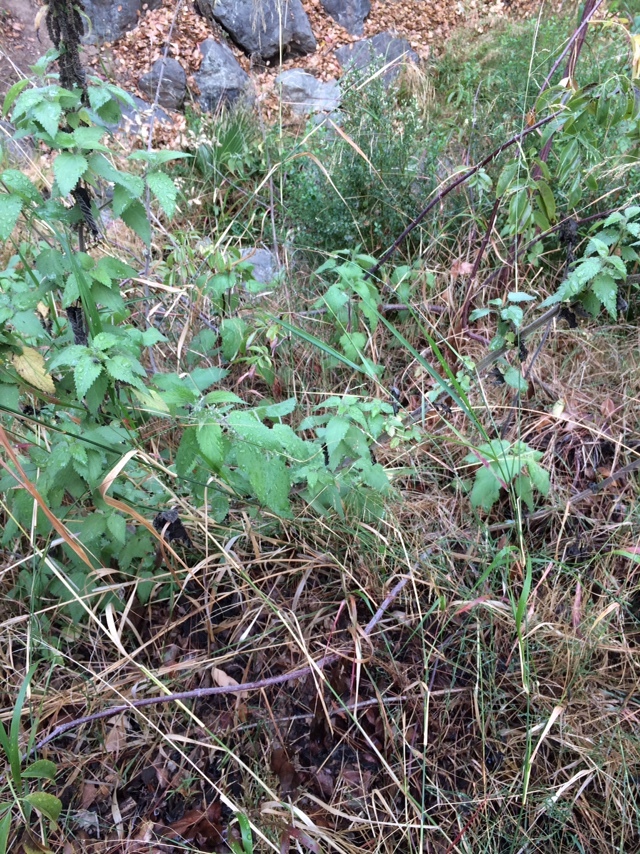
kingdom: Plantae
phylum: Tracheophyta
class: Magnoliopsida
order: Rosales
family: Urticaceae
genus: Urtica
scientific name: Urtica dioica
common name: Common nettle
